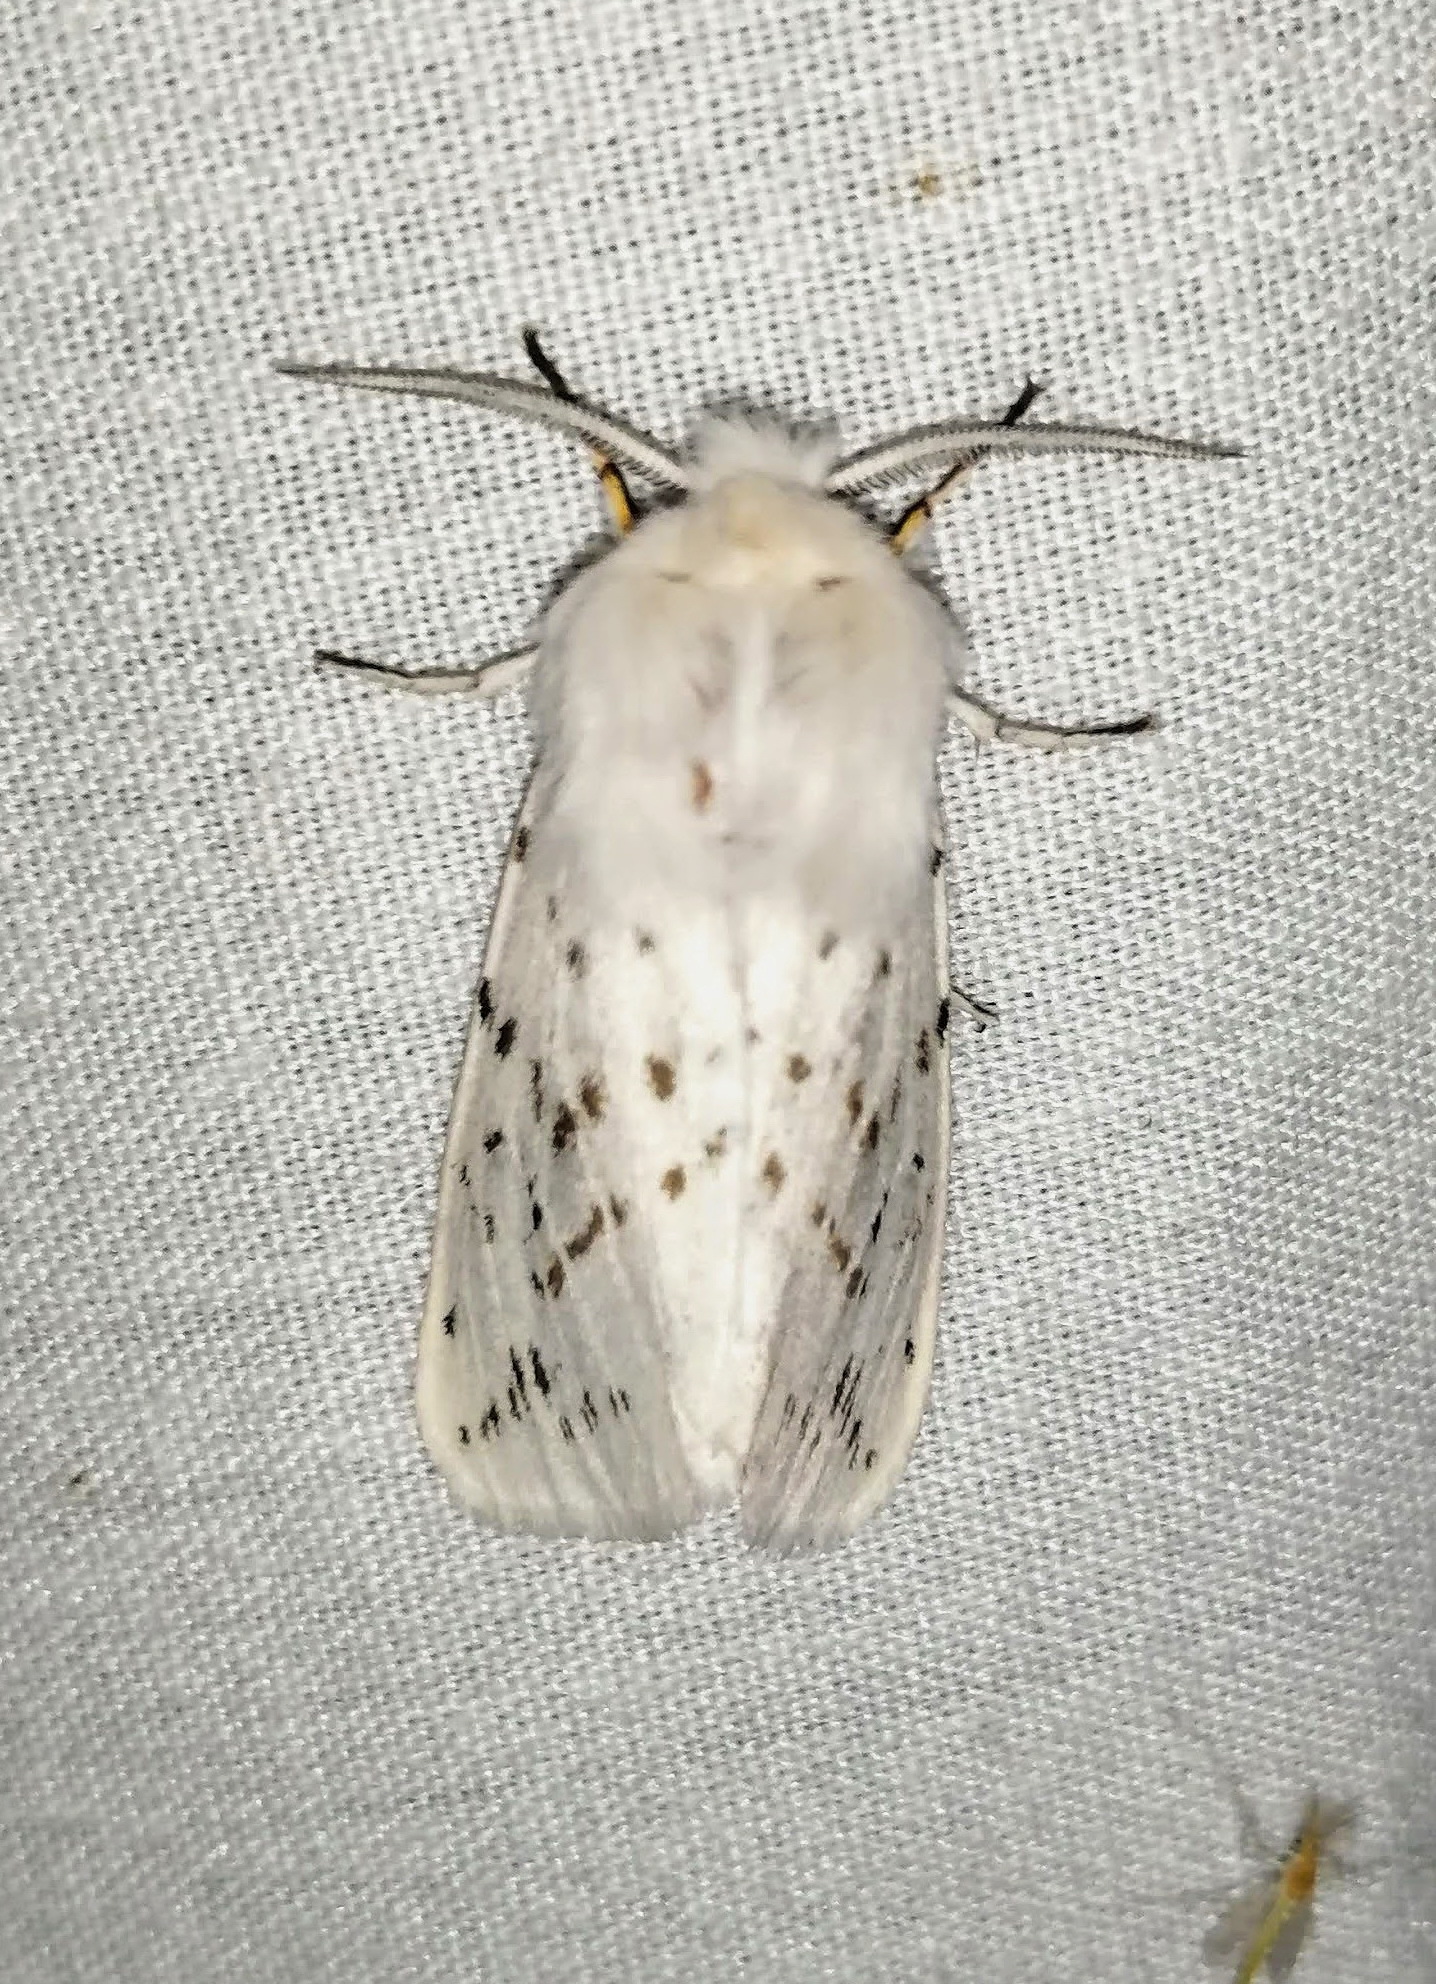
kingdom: Animalia
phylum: Arthropoda
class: Insecta
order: Lepidoptera
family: Erebidae
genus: Spilosoma
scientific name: Spilosoma dubia
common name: Dubious tiger moth
